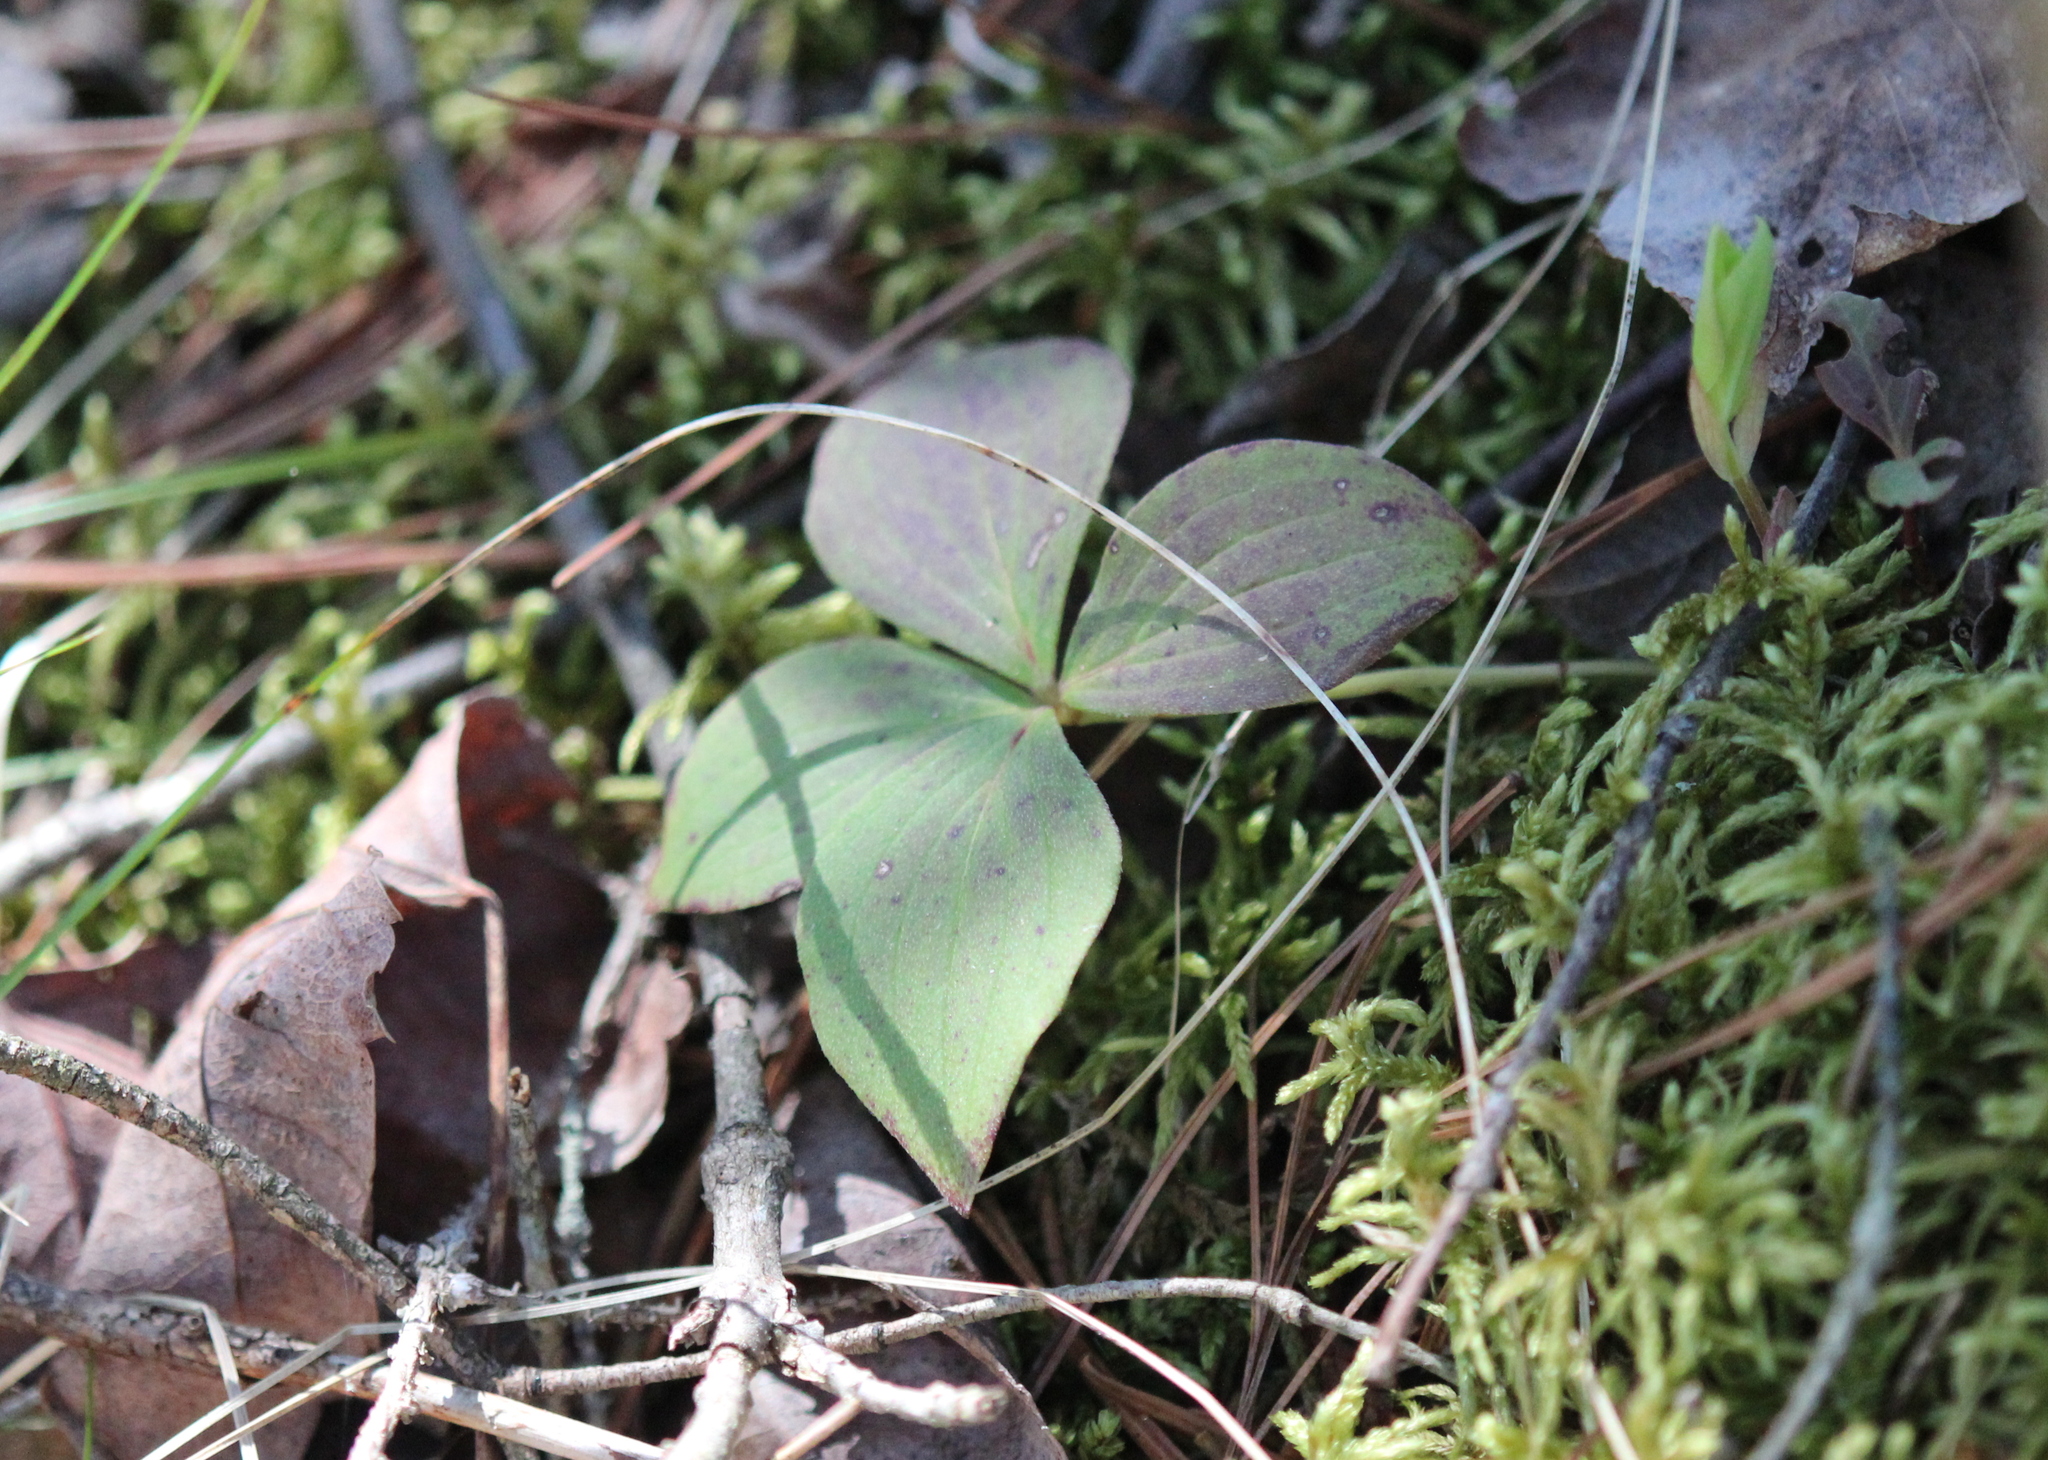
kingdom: Plantae
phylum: Tracheophyta
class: Magnoliopsida
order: Cornales
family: Cornaceae
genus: Cornus
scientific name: Cornus canadensis
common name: Creeping dogwood
